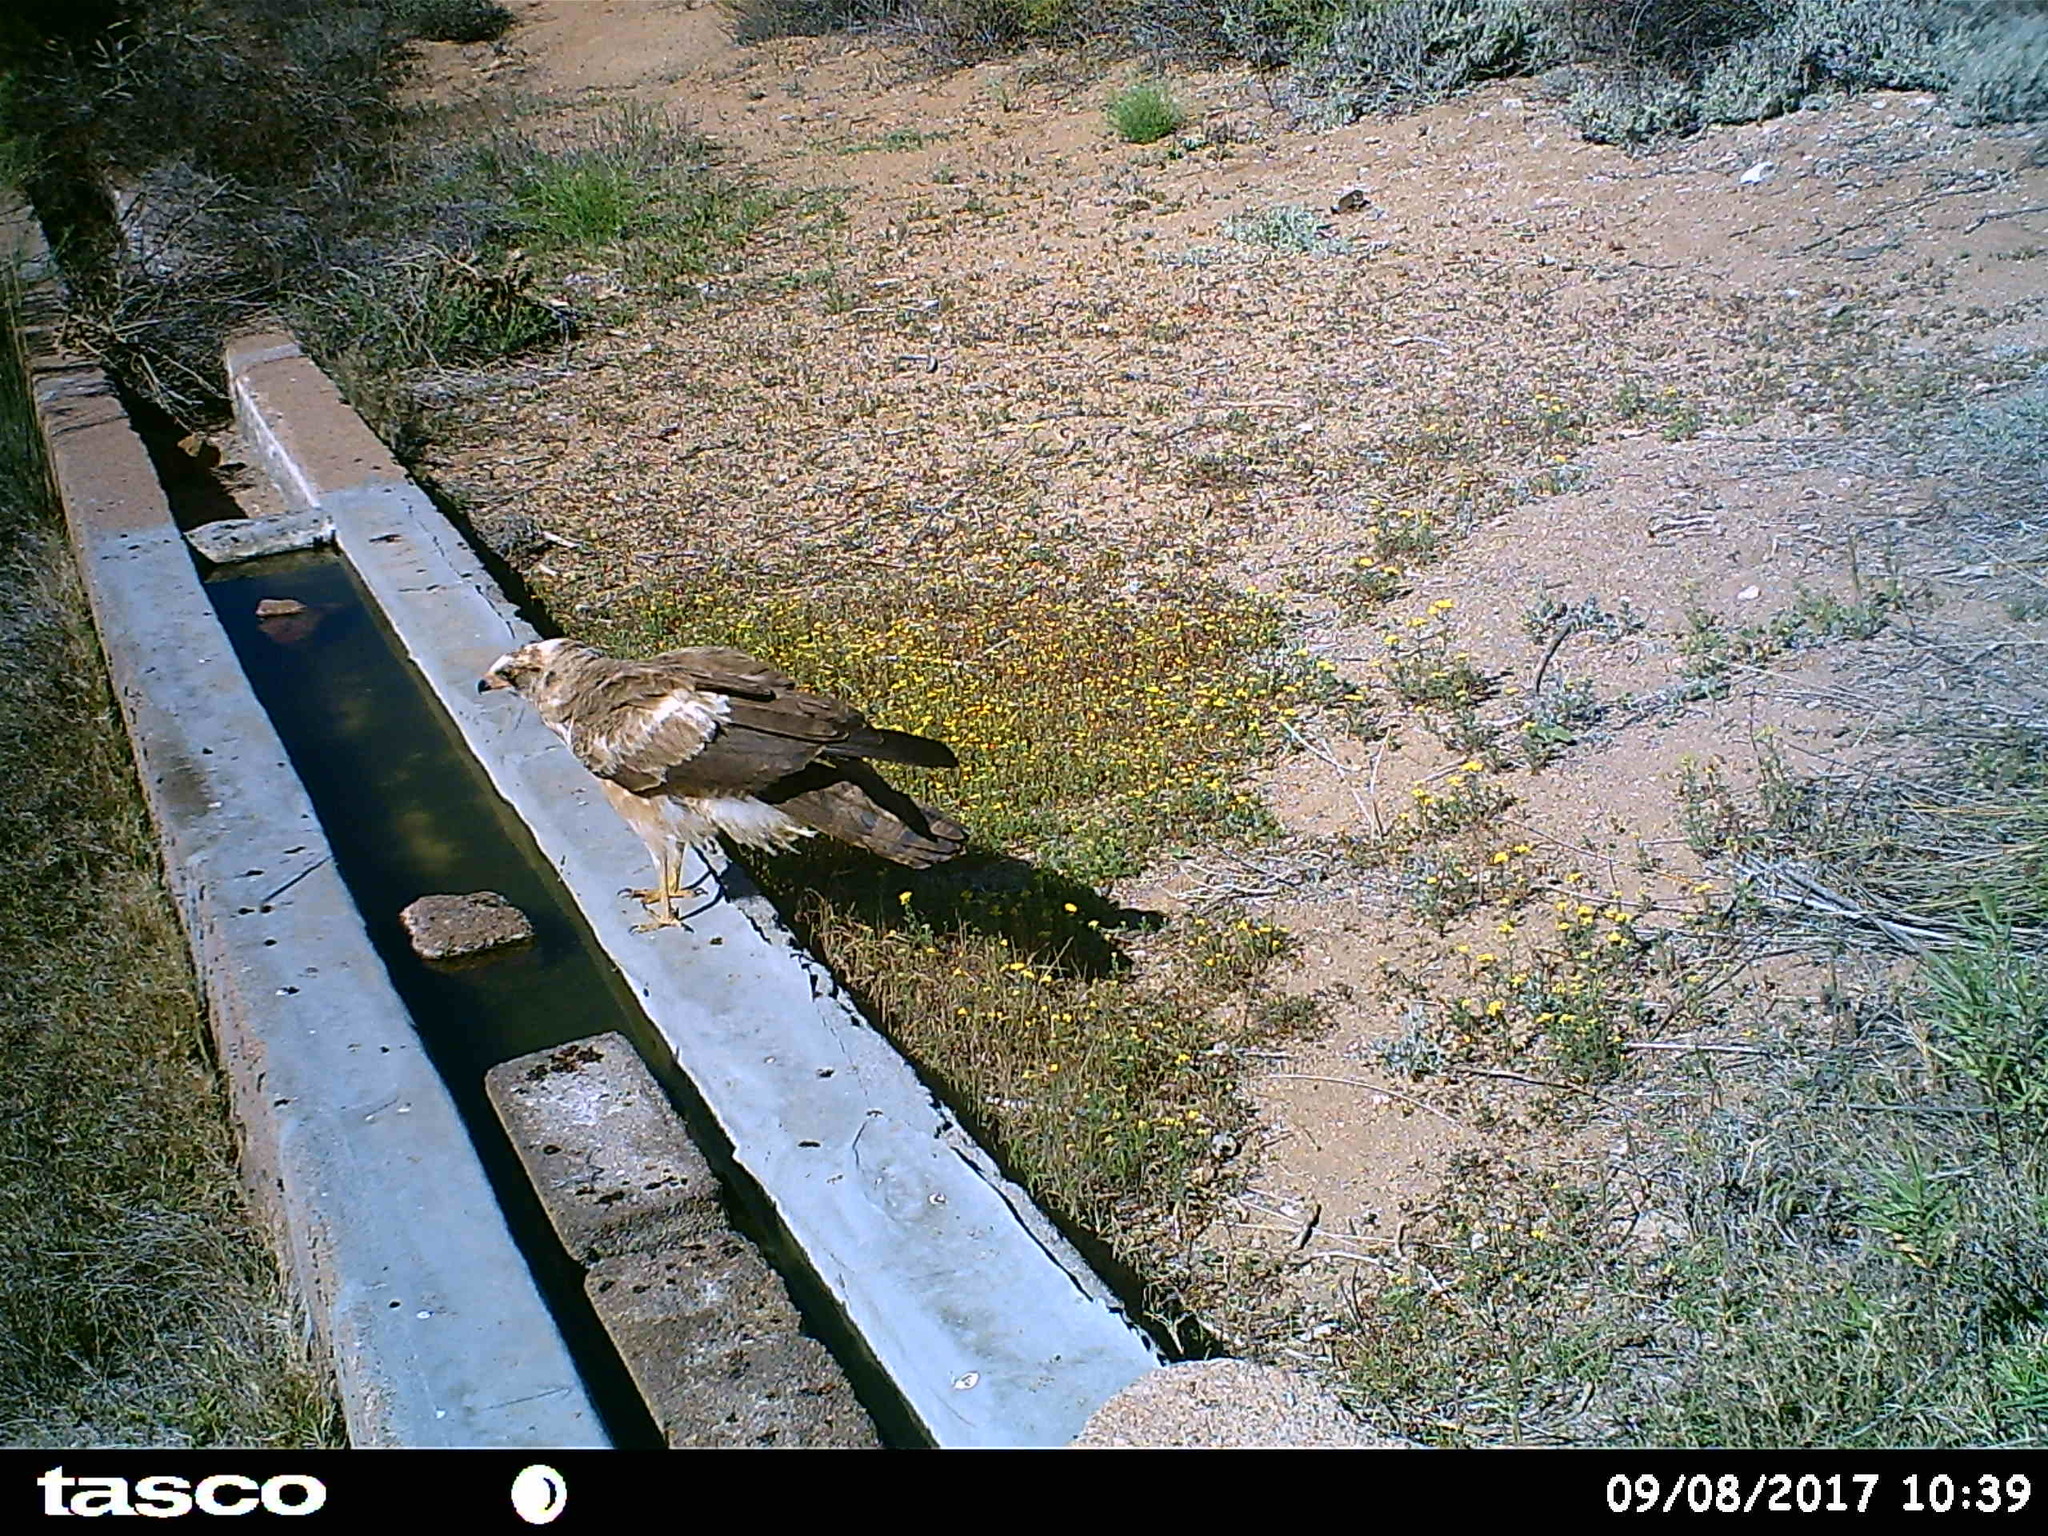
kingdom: Animalia
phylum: Chordata
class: Aves
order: Accipitriformes
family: Accipitridae
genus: Polyboroides
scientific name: Polyboroides typus
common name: African harrier-hawk
